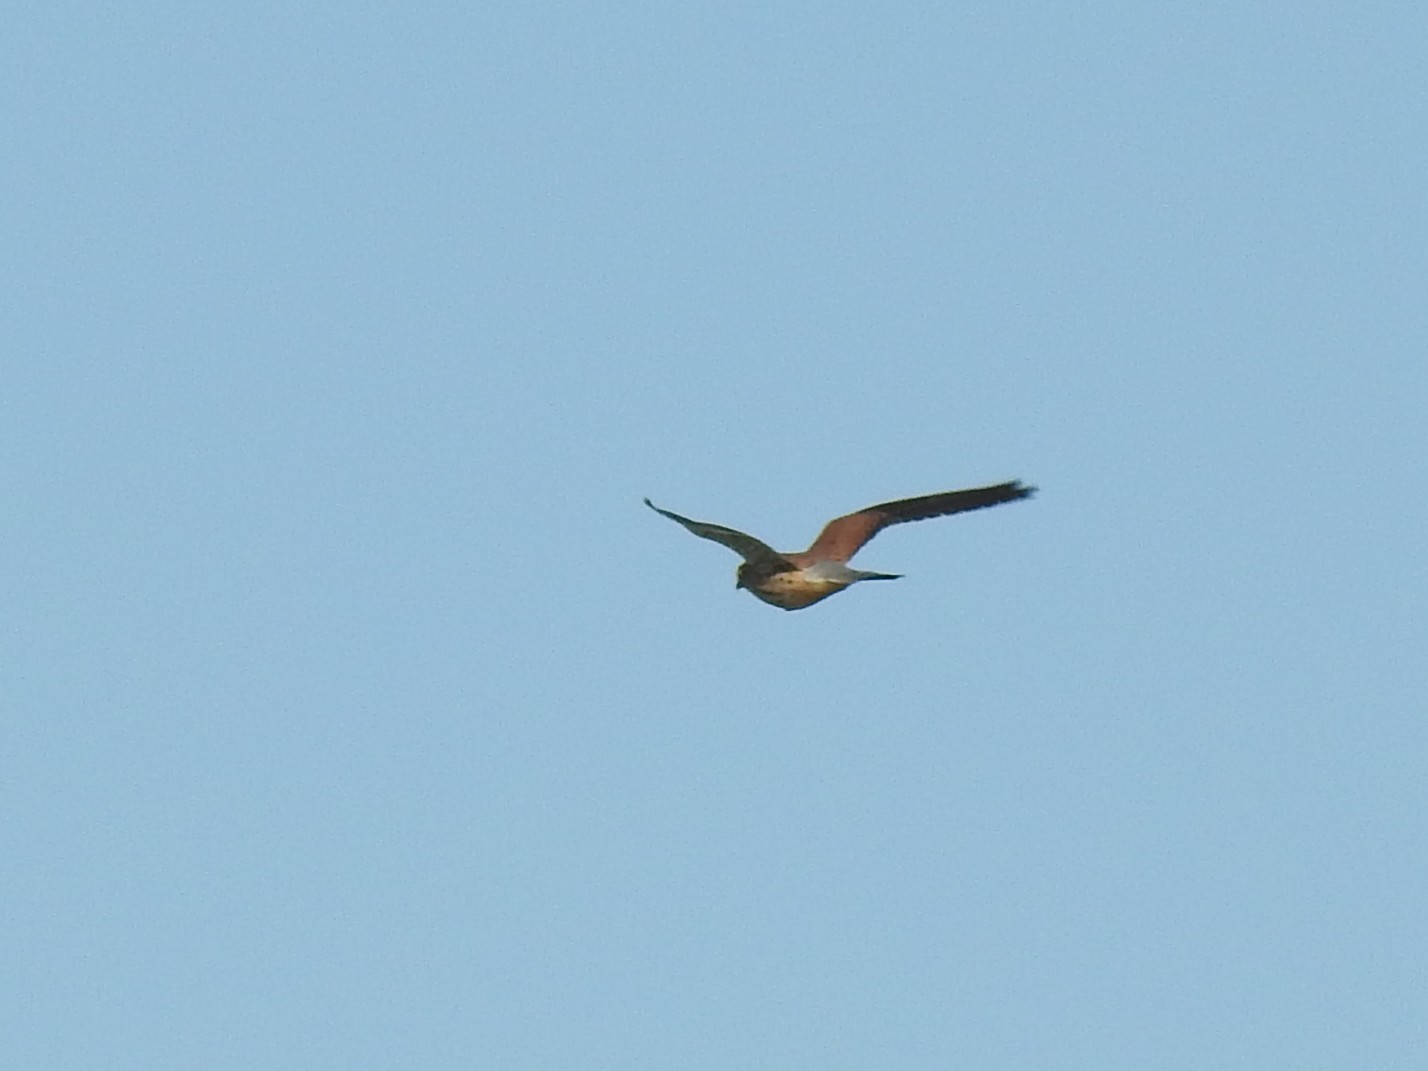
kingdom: Animalia
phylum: Chordata
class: Aves
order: Falconiformes
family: Falconidae
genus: Falco
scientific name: Falco tinnunculus
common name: Common kestrel
